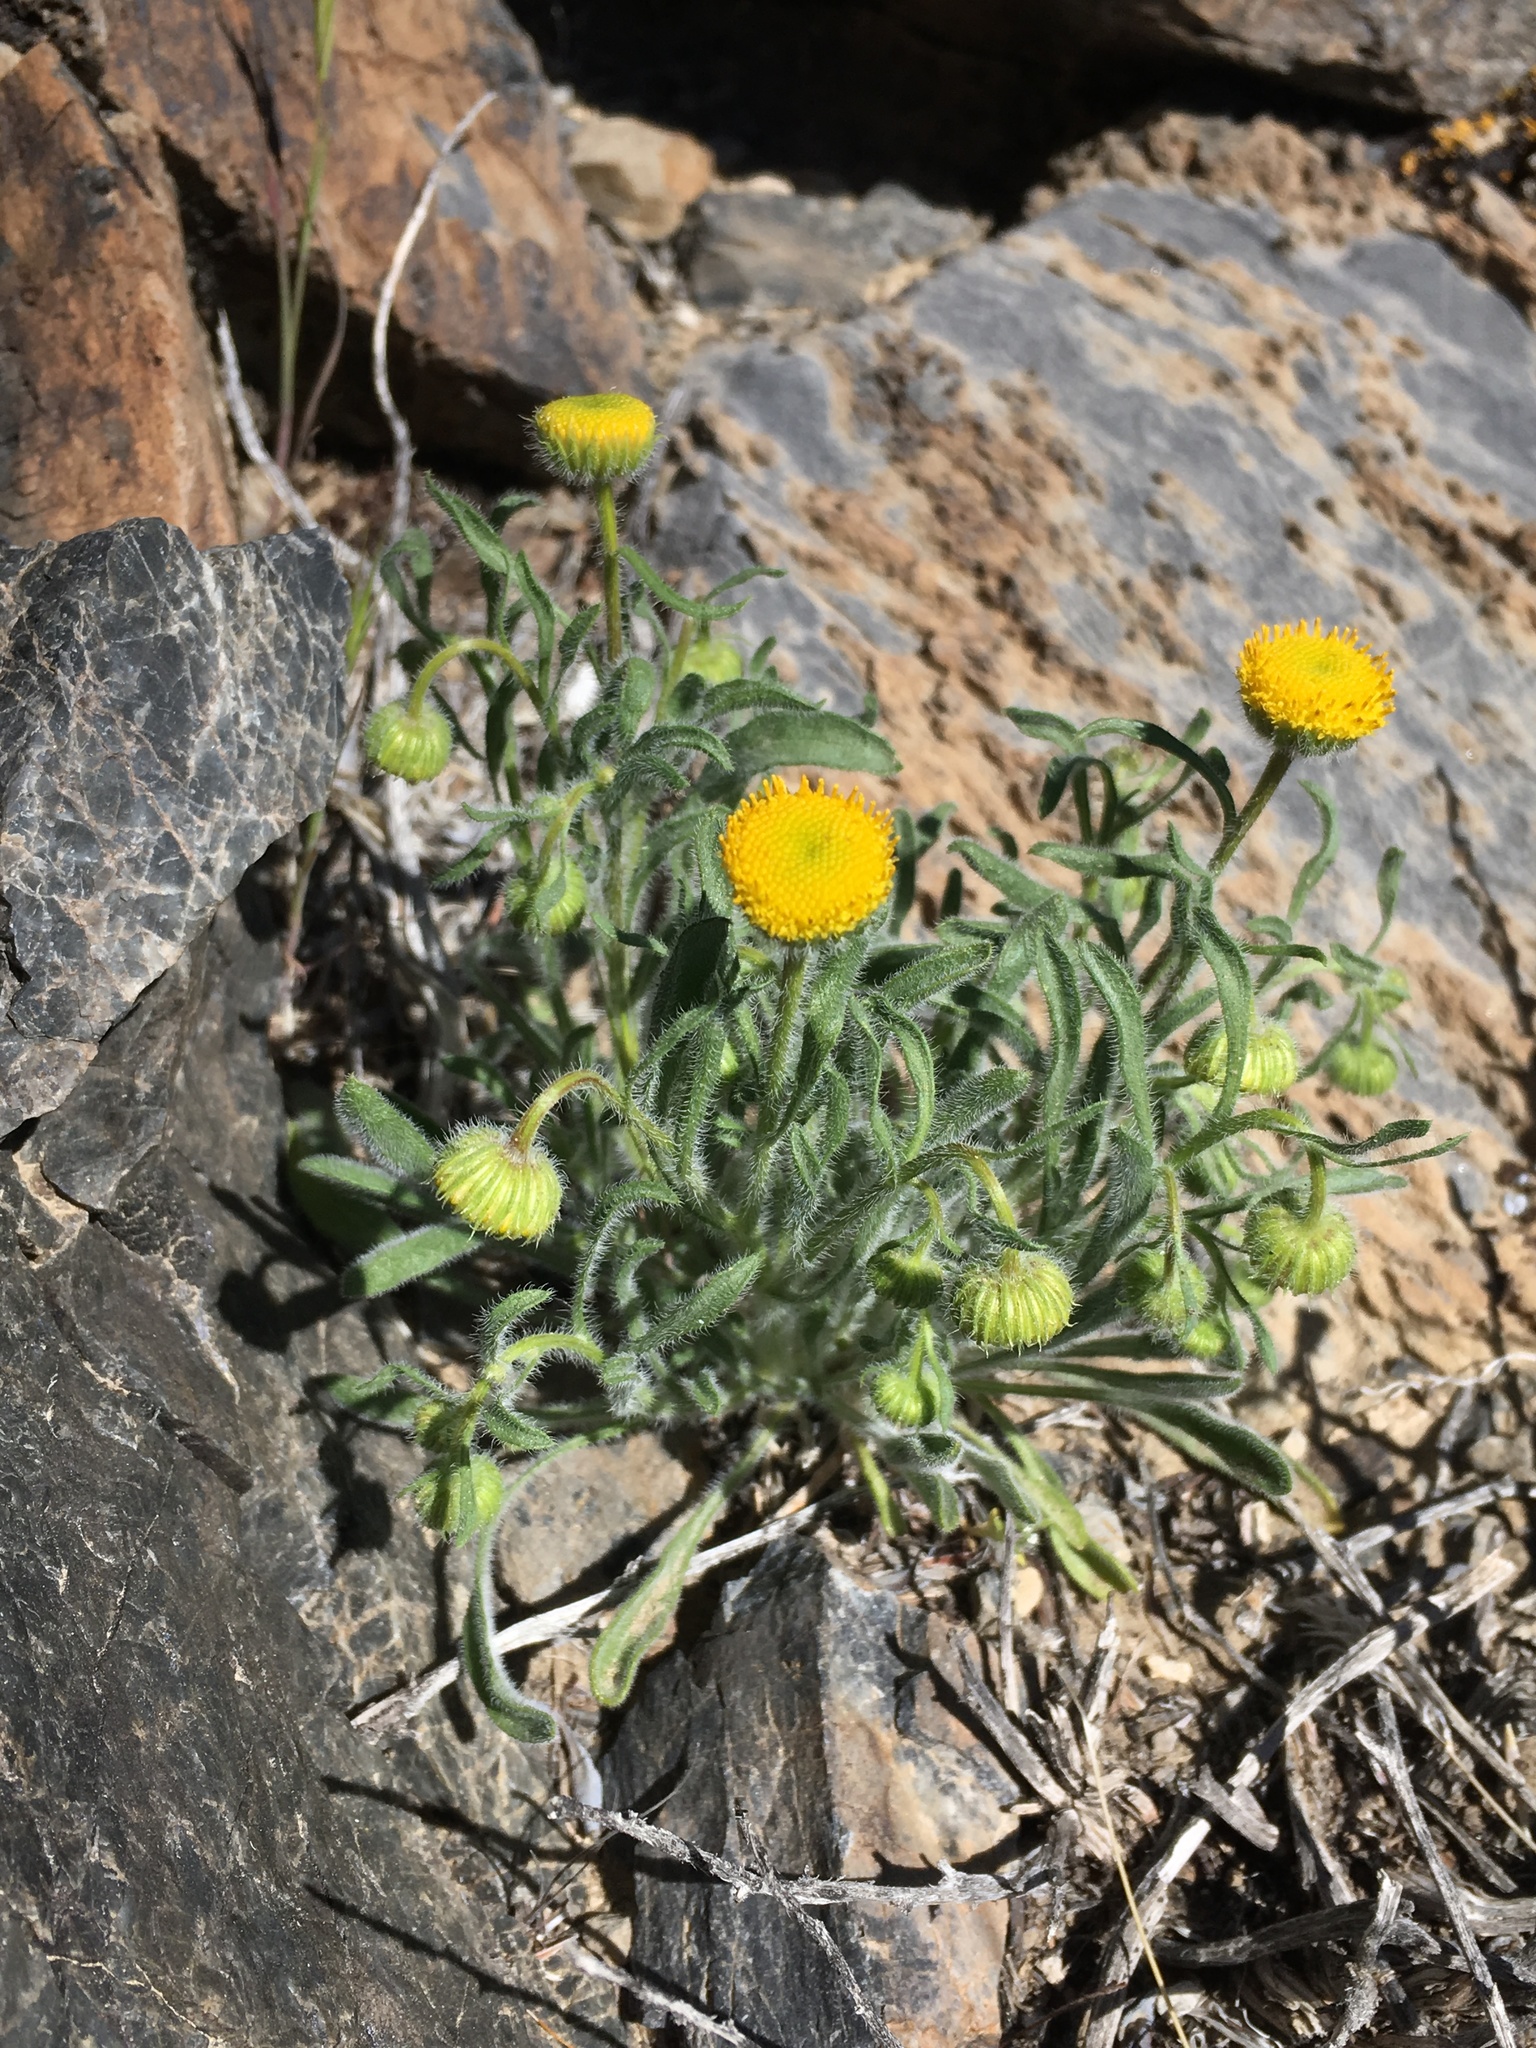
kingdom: Plantae
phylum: Tracheophyta
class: Magnoliopsida
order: Asterales
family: Asteraceae
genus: Erigeron
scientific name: Erigeron aphanactis
